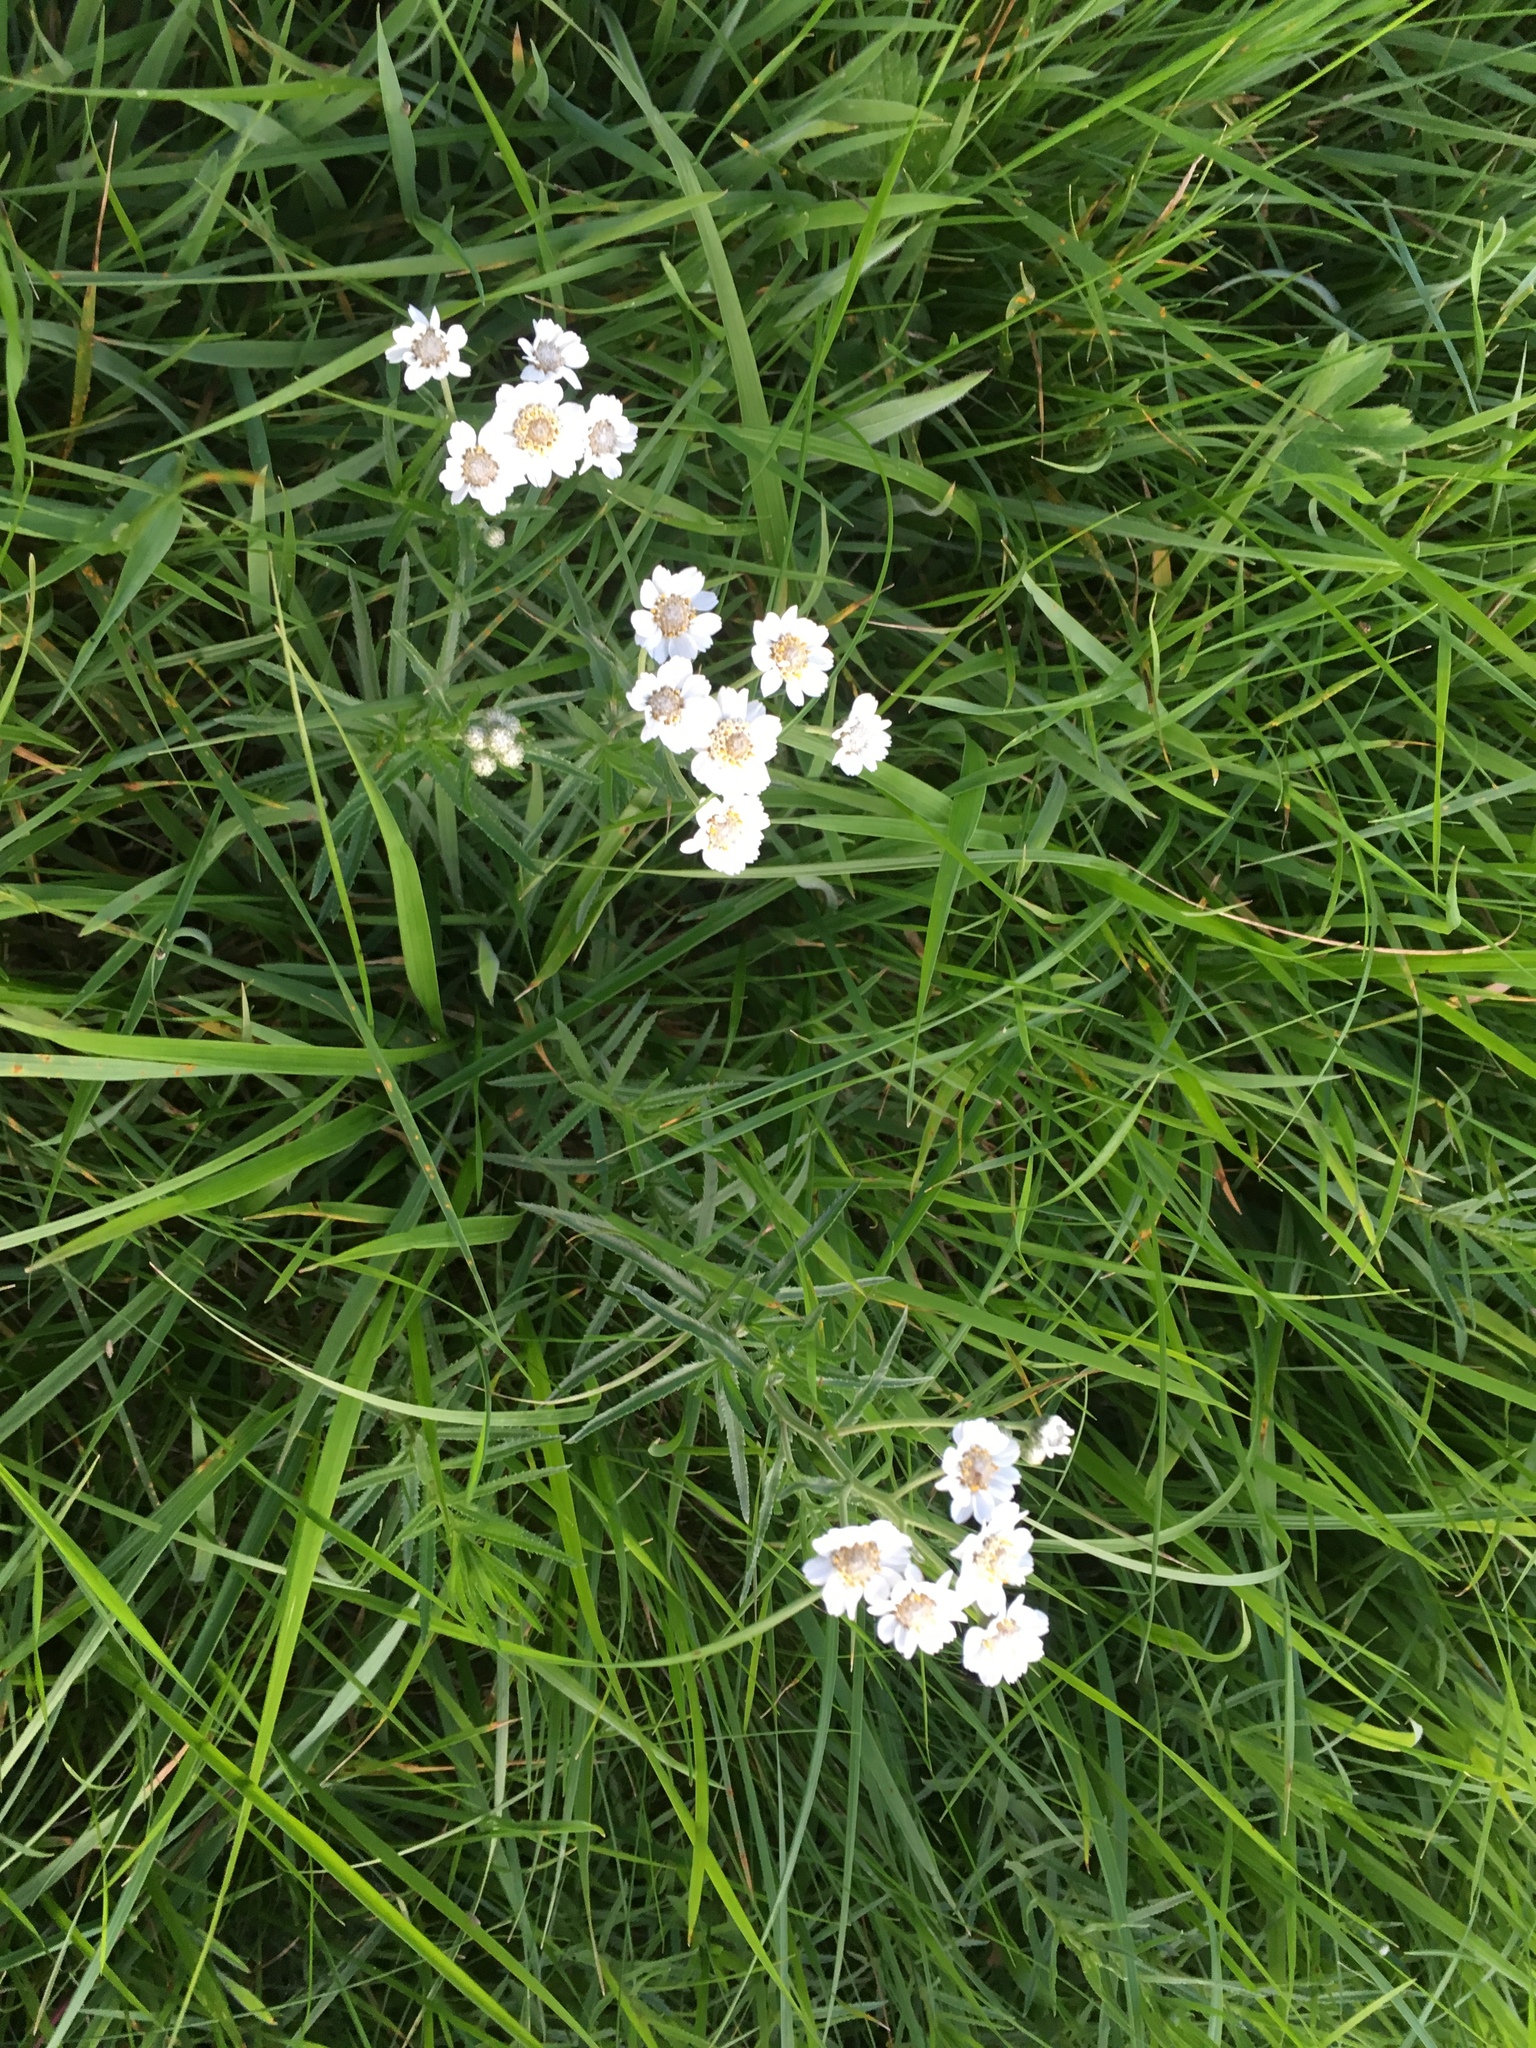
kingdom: Plantae
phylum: Tracheophyta
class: Magnoliopsida
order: Asterales
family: Asteraceae
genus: Achillea
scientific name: Achillea ptarmica
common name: Sneezeweed
